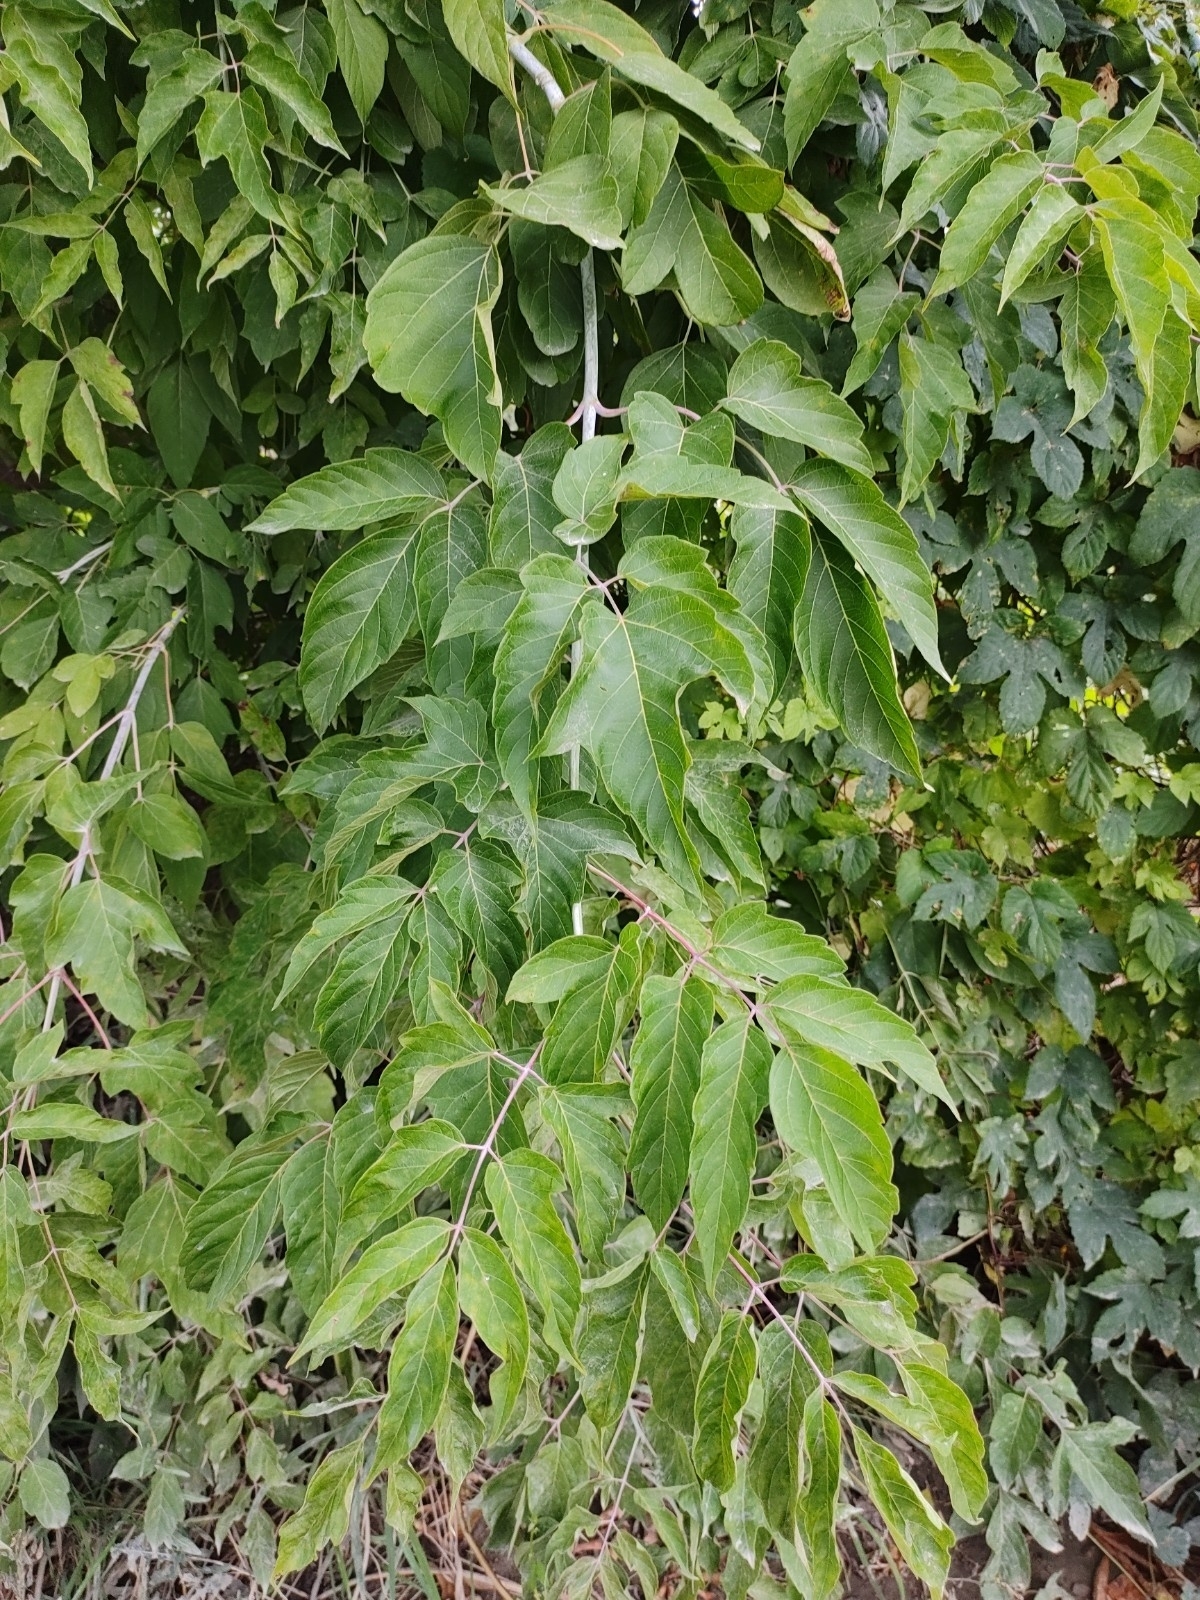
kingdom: Plantae
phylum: Tracheophyta
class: Magnoliopsida
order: Sapindales
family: Sapindaceae
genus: Acer
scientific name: Acer negundo
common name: Ashleaf maple
